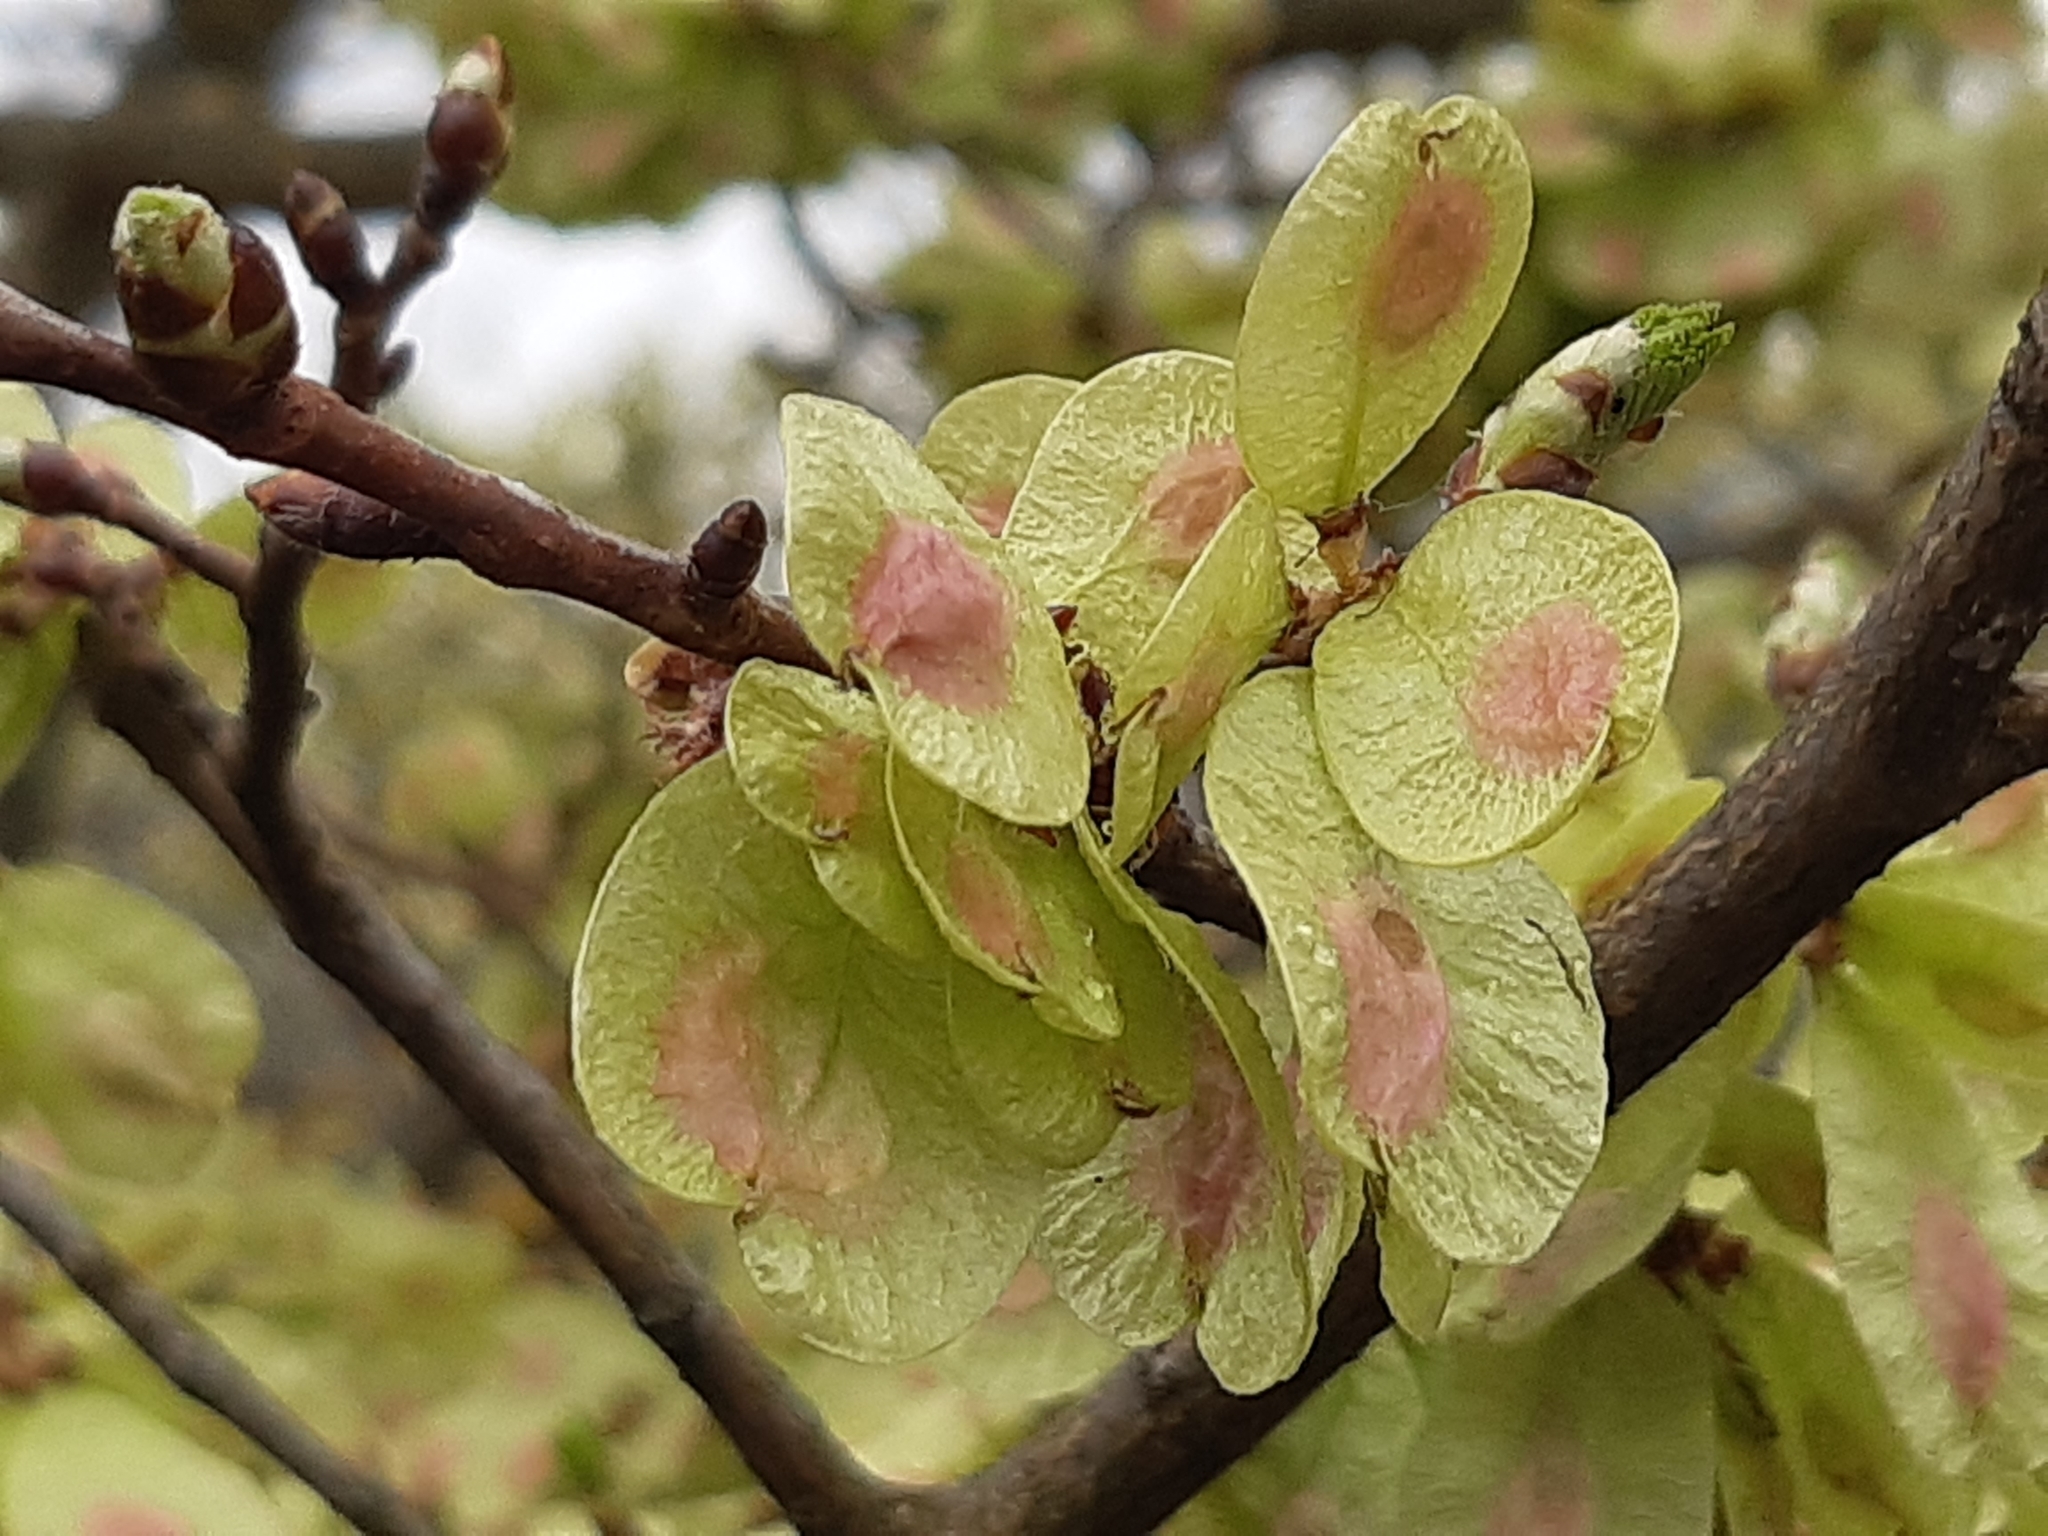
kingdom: Plantae
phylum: Tracheophyta
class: Magnoliopsida
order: Rosales
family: Ulmaceae
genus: Ulmus
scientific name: Ulmus minor
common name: Small-leaved elm
